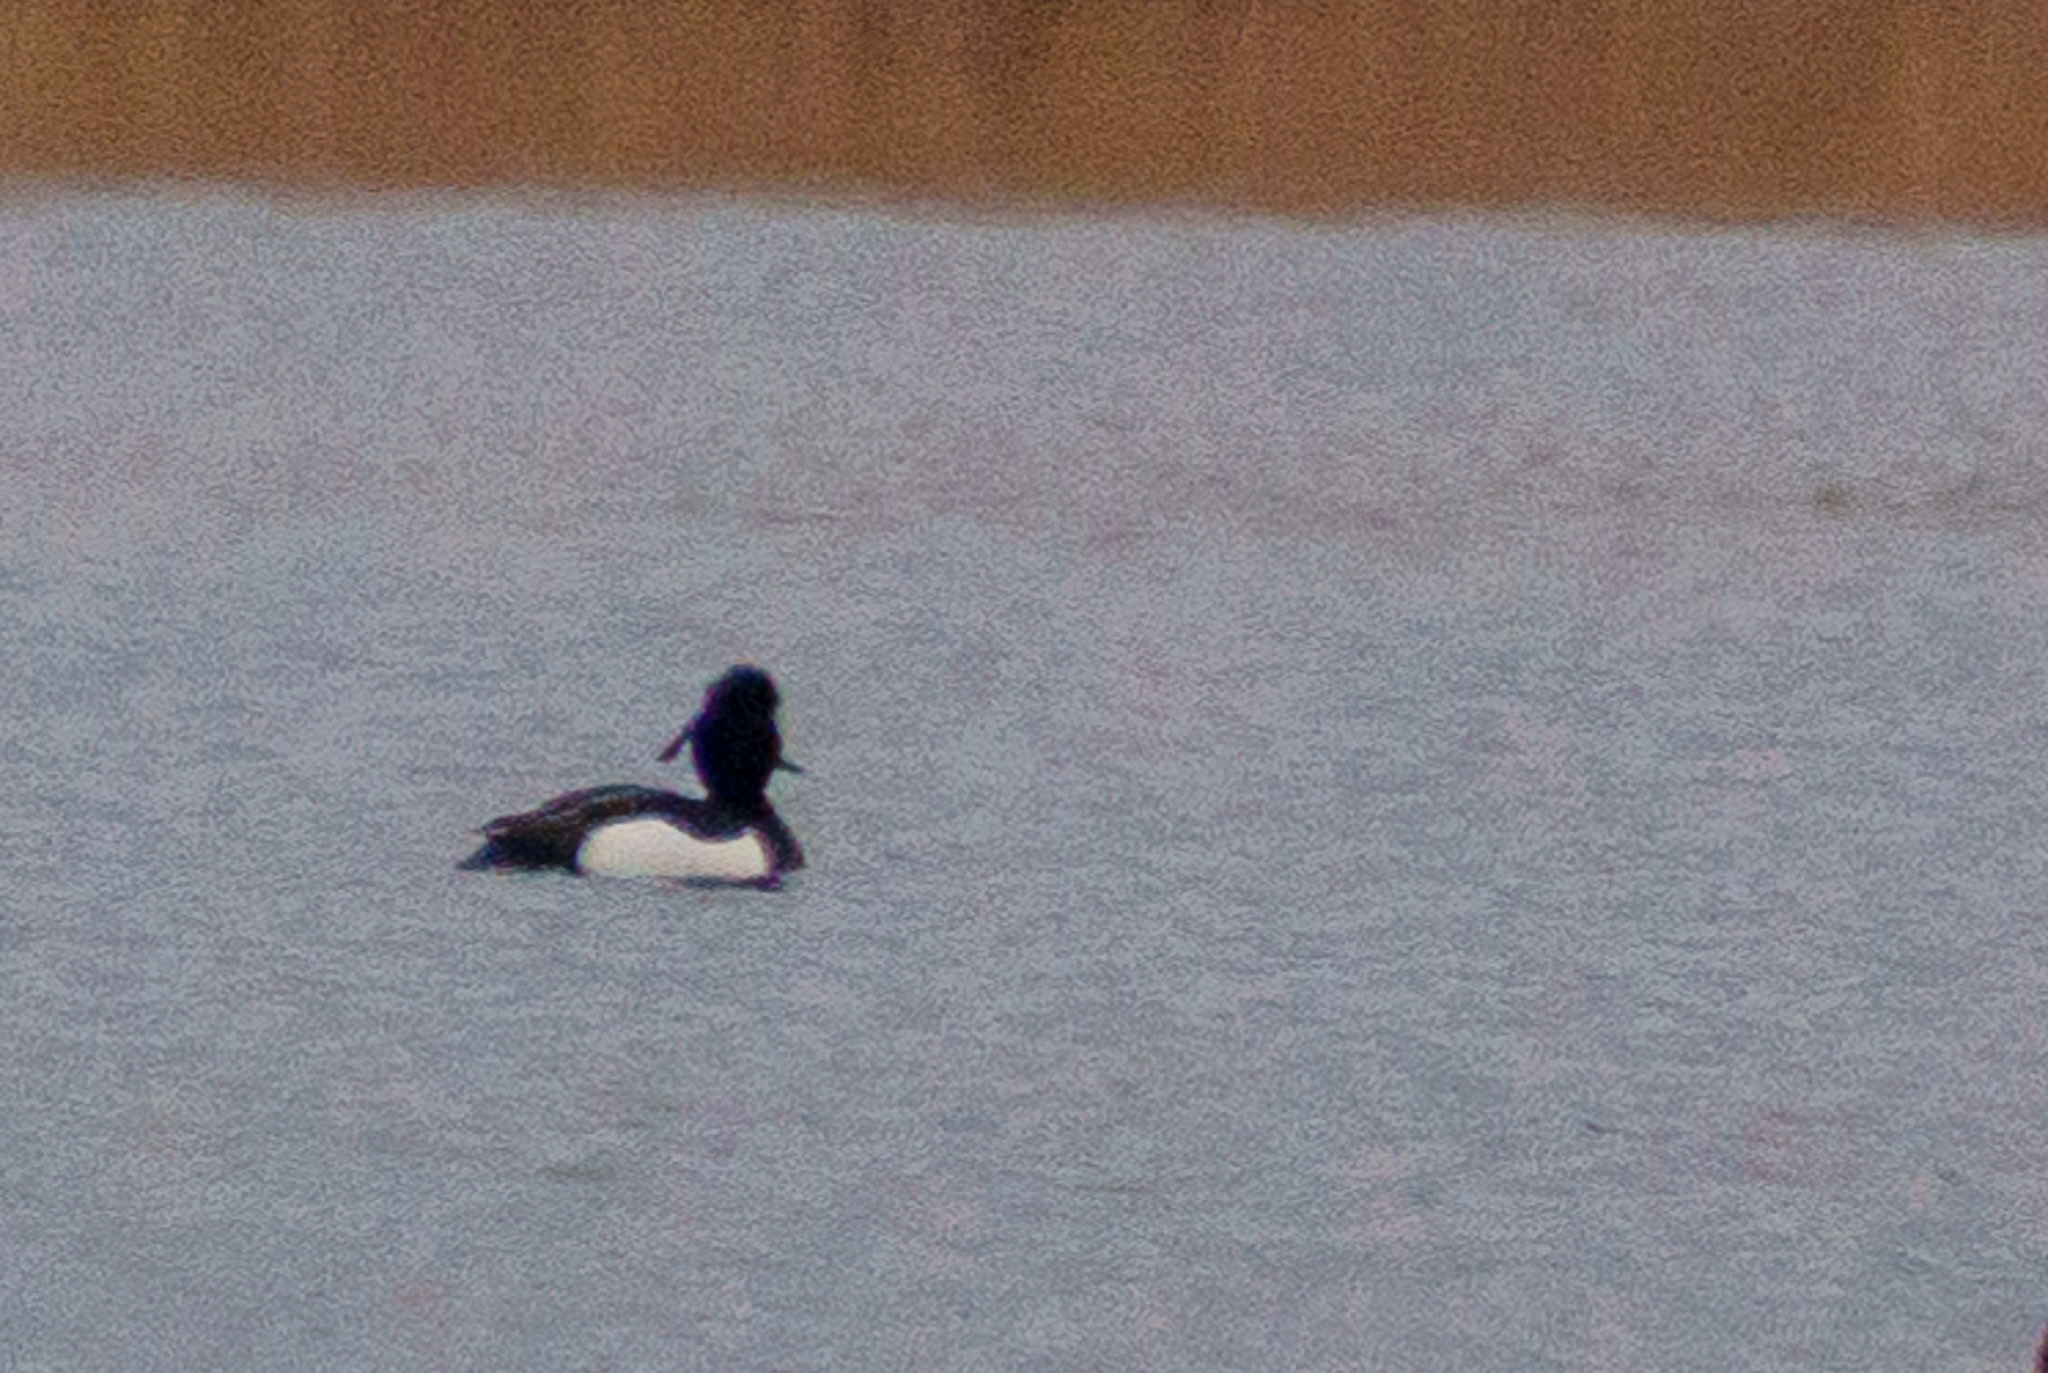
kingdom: Animalia
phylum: Chordata
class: Aves
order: Anseriformes
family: Anatidae
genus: Aythya
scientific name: Aythya fuligula
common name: Tufted duck
